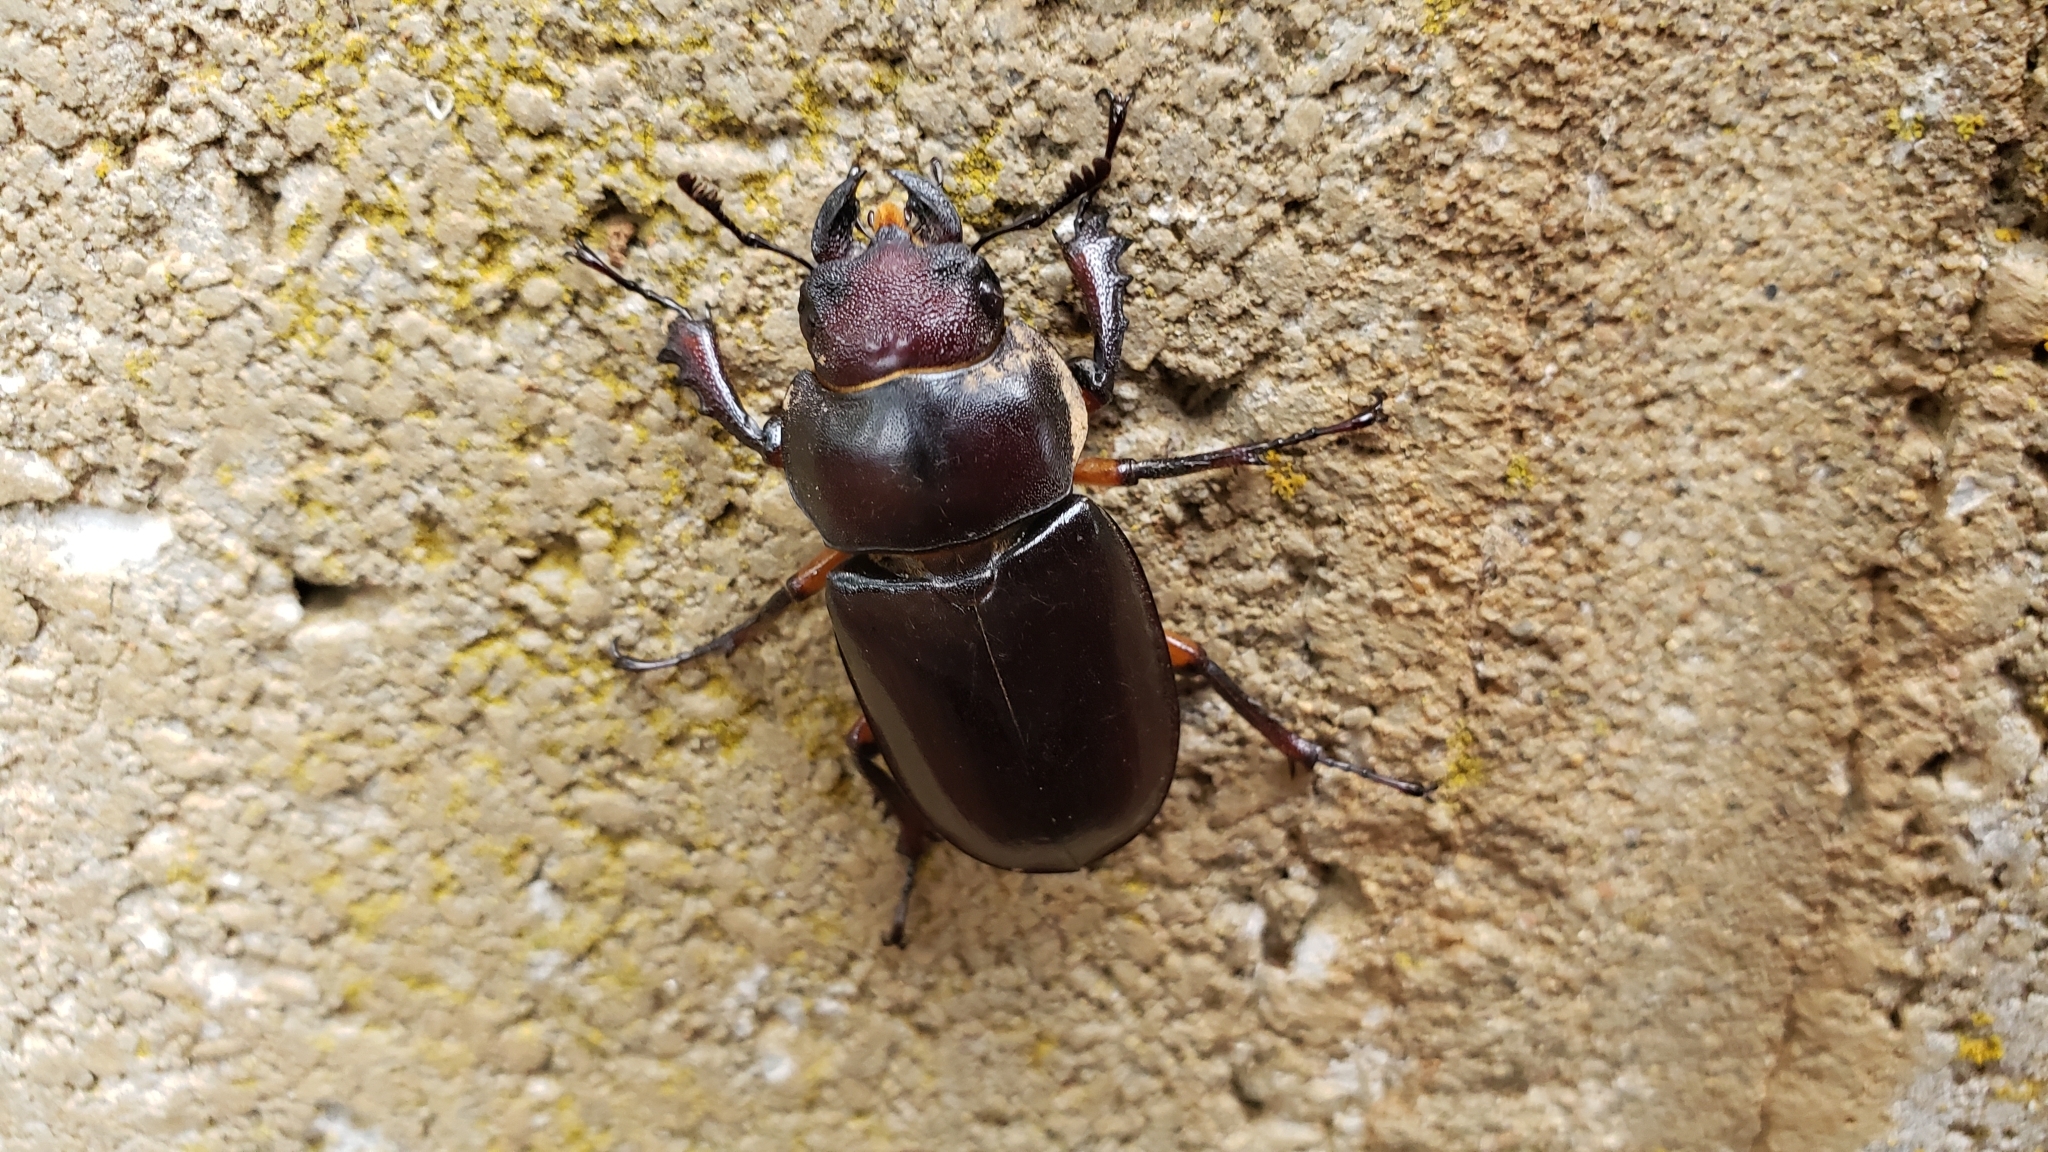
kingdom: Animalia
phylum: Arthropoda
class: Insecta
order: Coleoptera
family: Lucanidae
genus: Lucanus
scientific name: Lucanus capreolus
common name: Stag beetle
